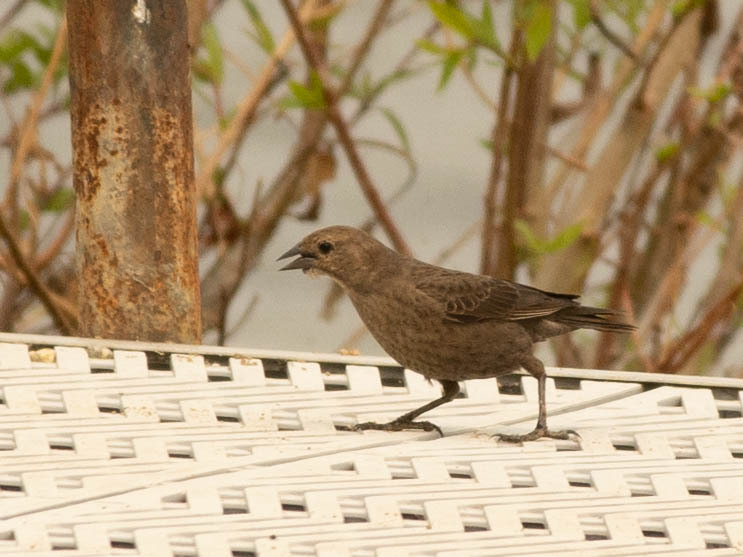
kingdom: Animalia
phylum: Chordata
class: Aves
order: Passeriformes
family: Icteridae
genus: Molothrus
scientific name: Molothrus ater
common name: Brown-headed cowbird
